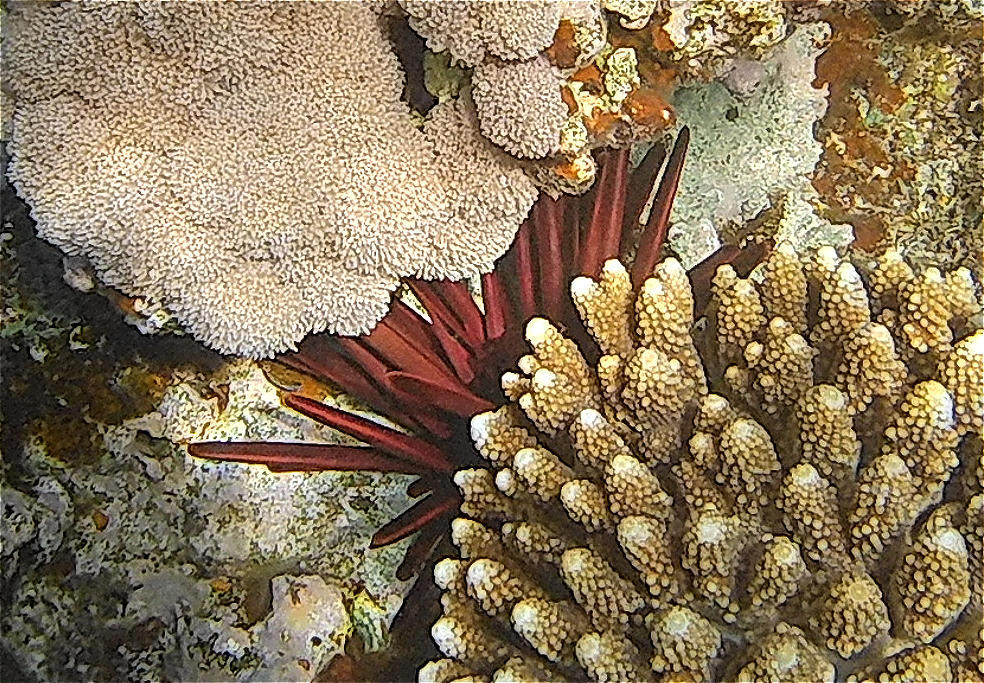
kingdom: Animalia
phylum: Echinodermata
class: Echinoidea
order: Camarodonta
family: Echinometridae
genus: Heterocentrotus
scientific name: Heterocentrotus mamillatus
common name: Slate pencil urchin
